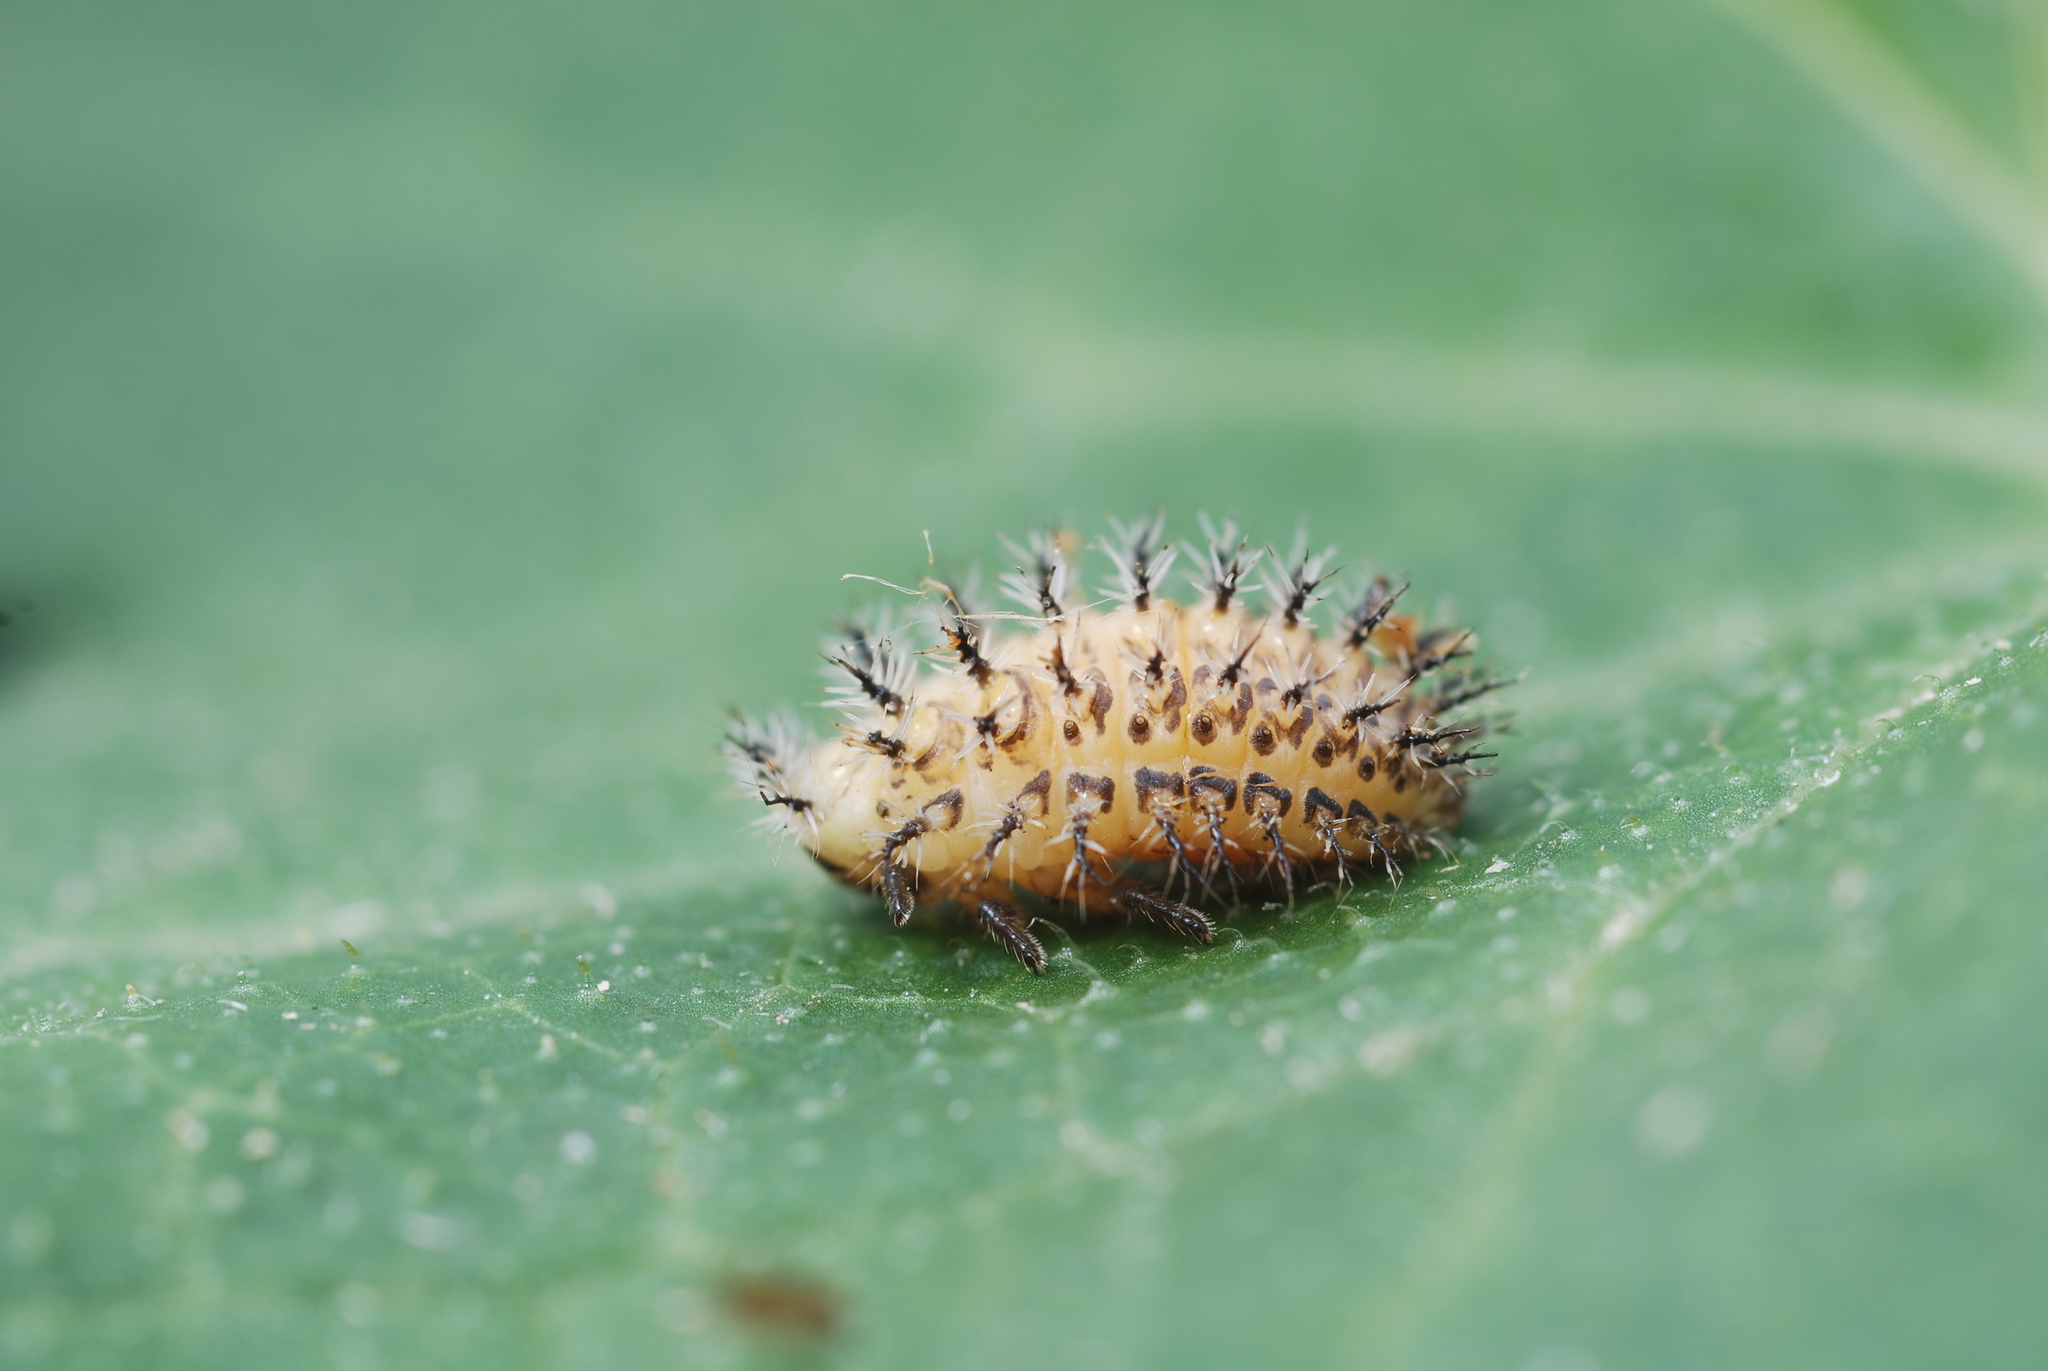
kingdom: Animalia
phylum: Arthropoda
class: Insecta
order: Coleoptera
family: Coccinellidae
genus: Henosepilachna
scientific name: Henosepilachna argus
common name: Bryony ladybird
